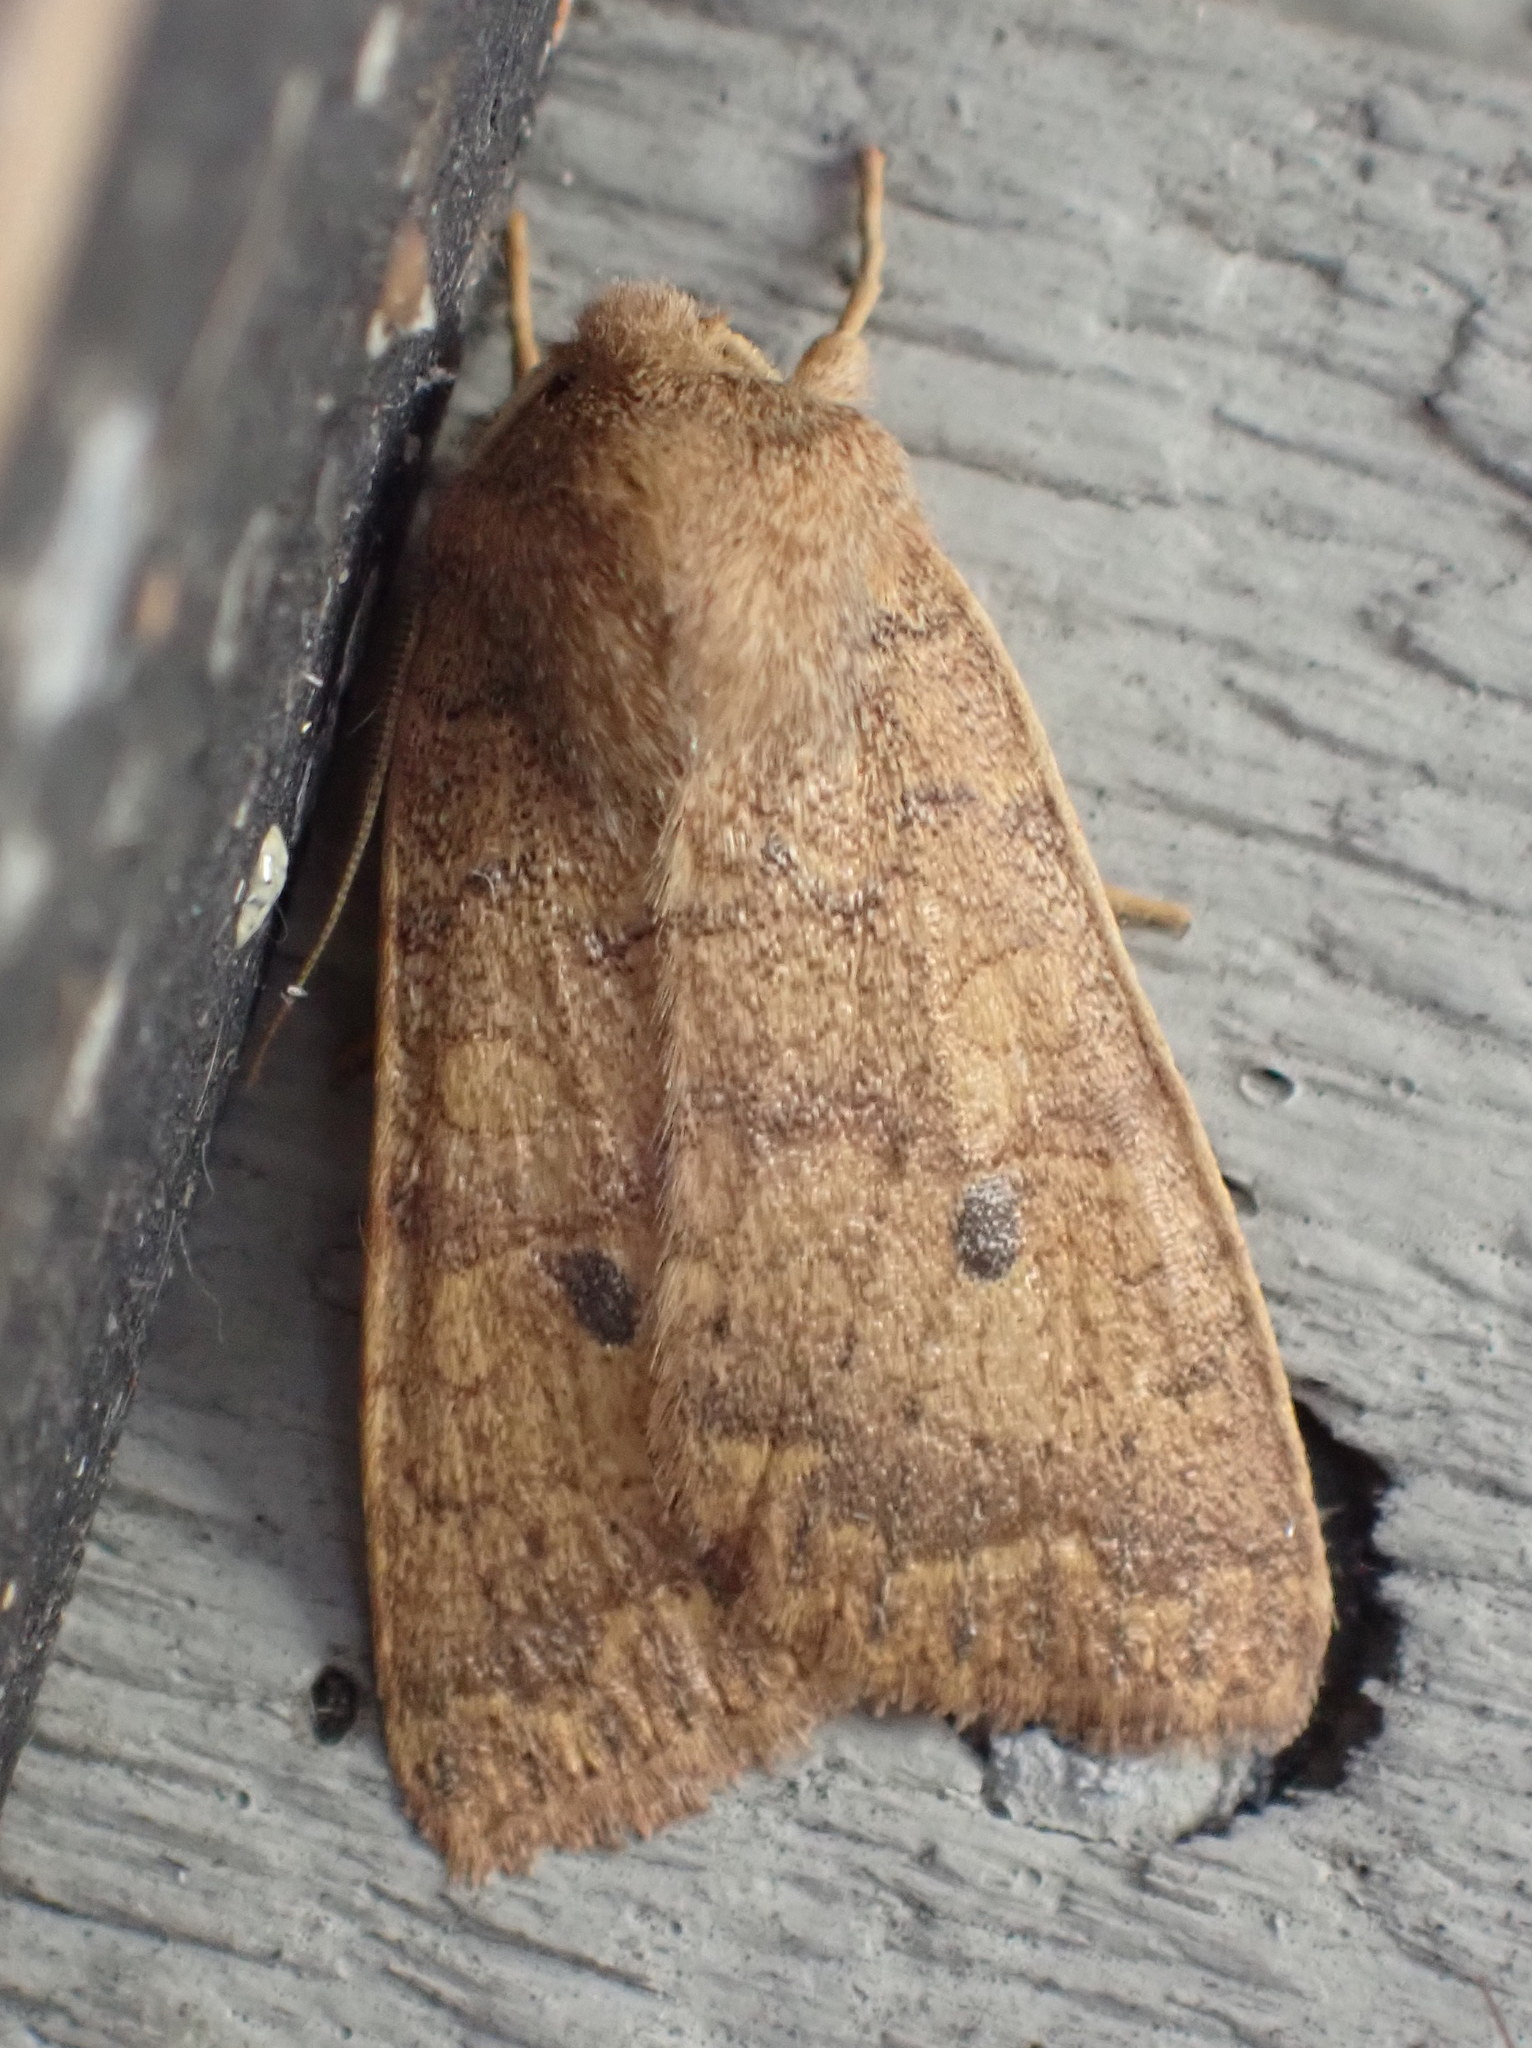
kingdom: Animalia
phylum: Arthropoda
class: Insecta
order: Lepidoptera
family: Noctuidae
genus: Agrochola
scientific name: Agrochola bicolorago
